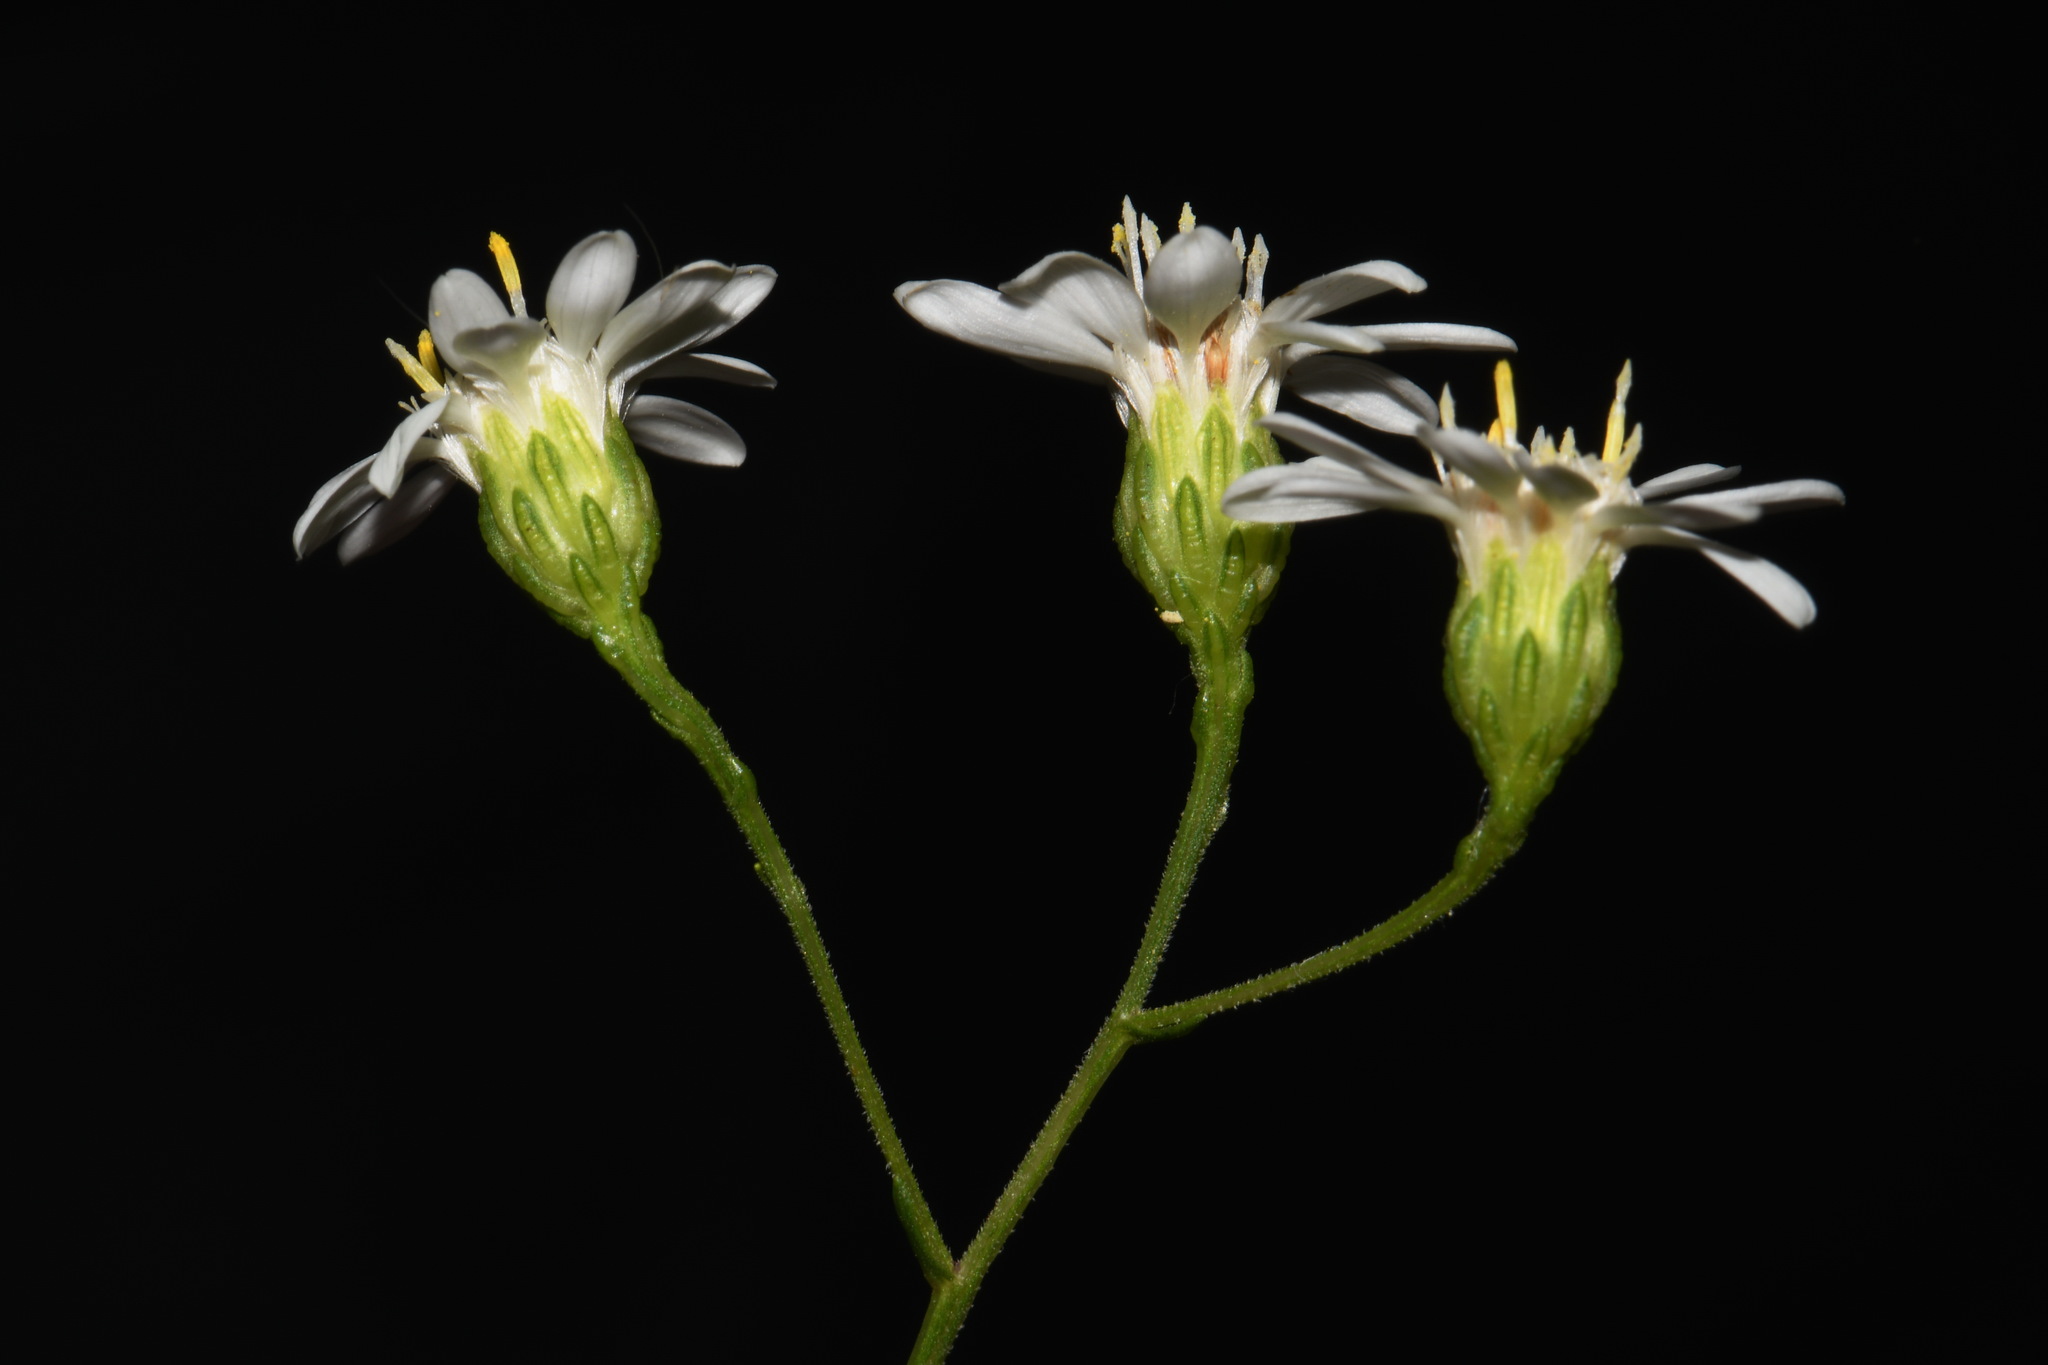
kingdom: Plantae
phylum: Tracheophyta
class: Magnoliopsida
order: Asterales
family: Asteraceae
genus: Solidago
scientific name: Solidago ptarmicoides
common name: White flat-top goldenrod
